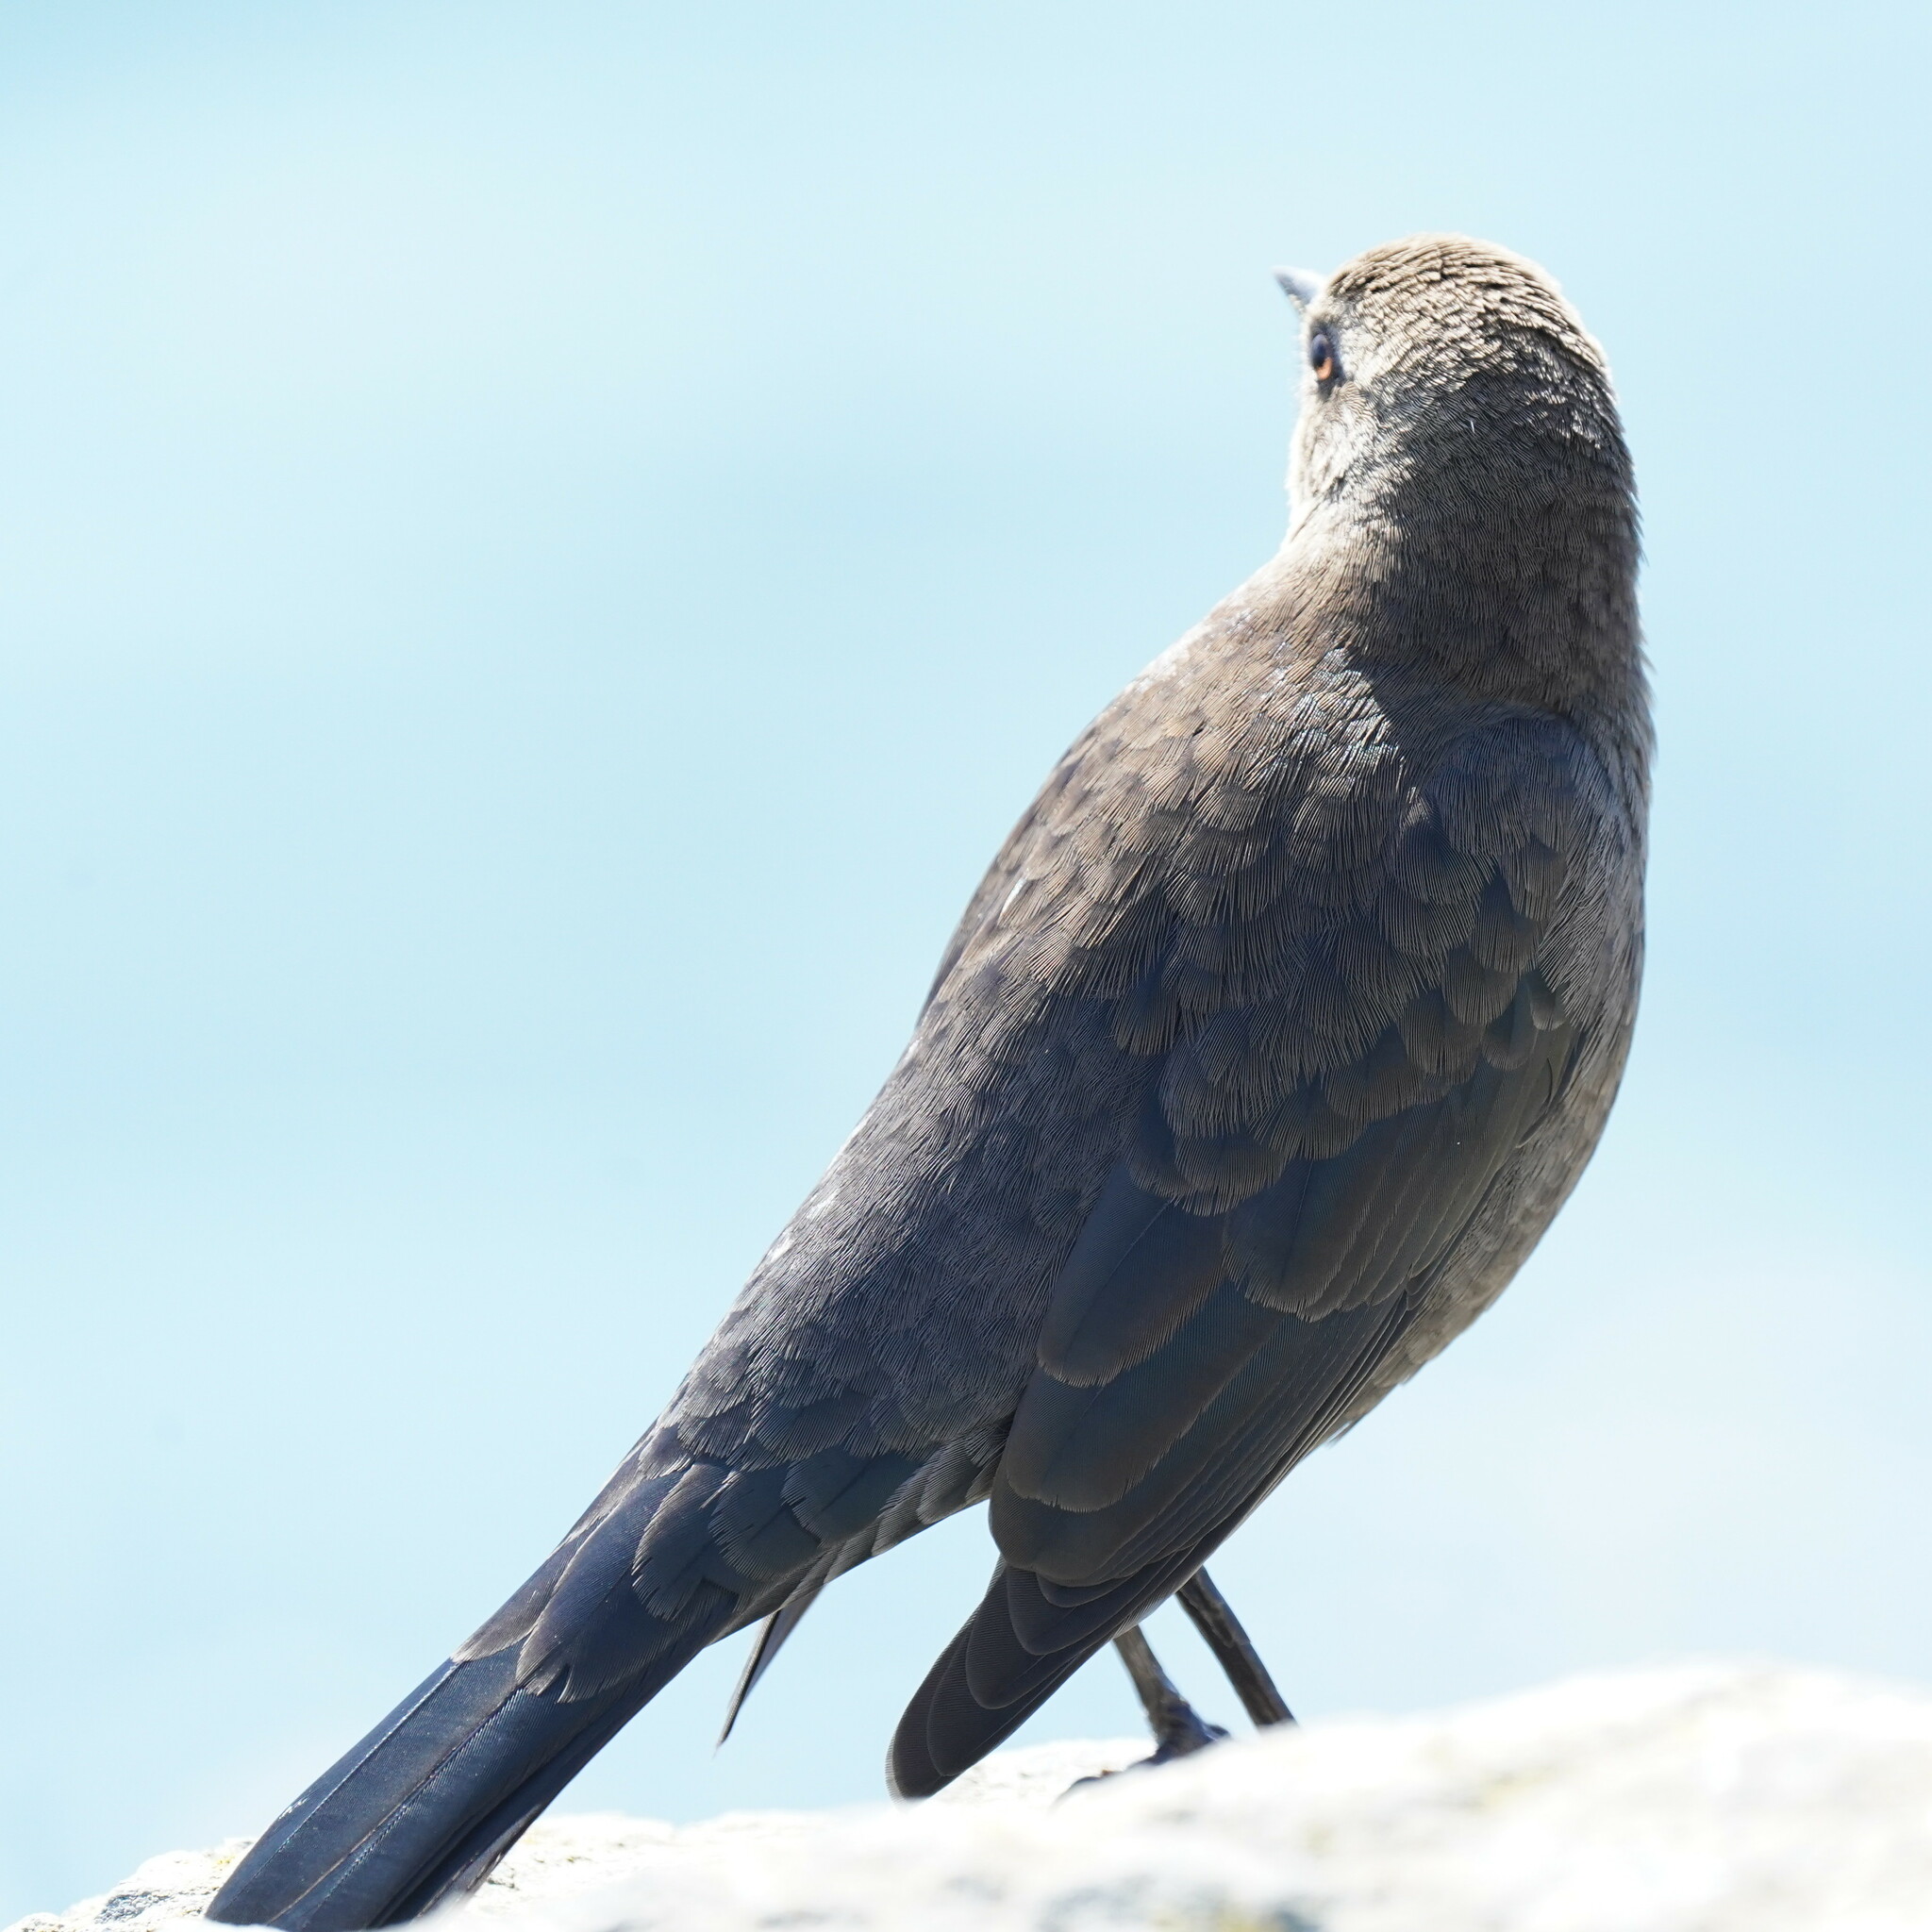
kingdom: Animalia
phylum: Chordata
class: Aves
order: Passeriformes
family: Icteridae
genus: Euphagus
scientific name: Euphagus cyanocephalus
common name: Brewer's blackbird
